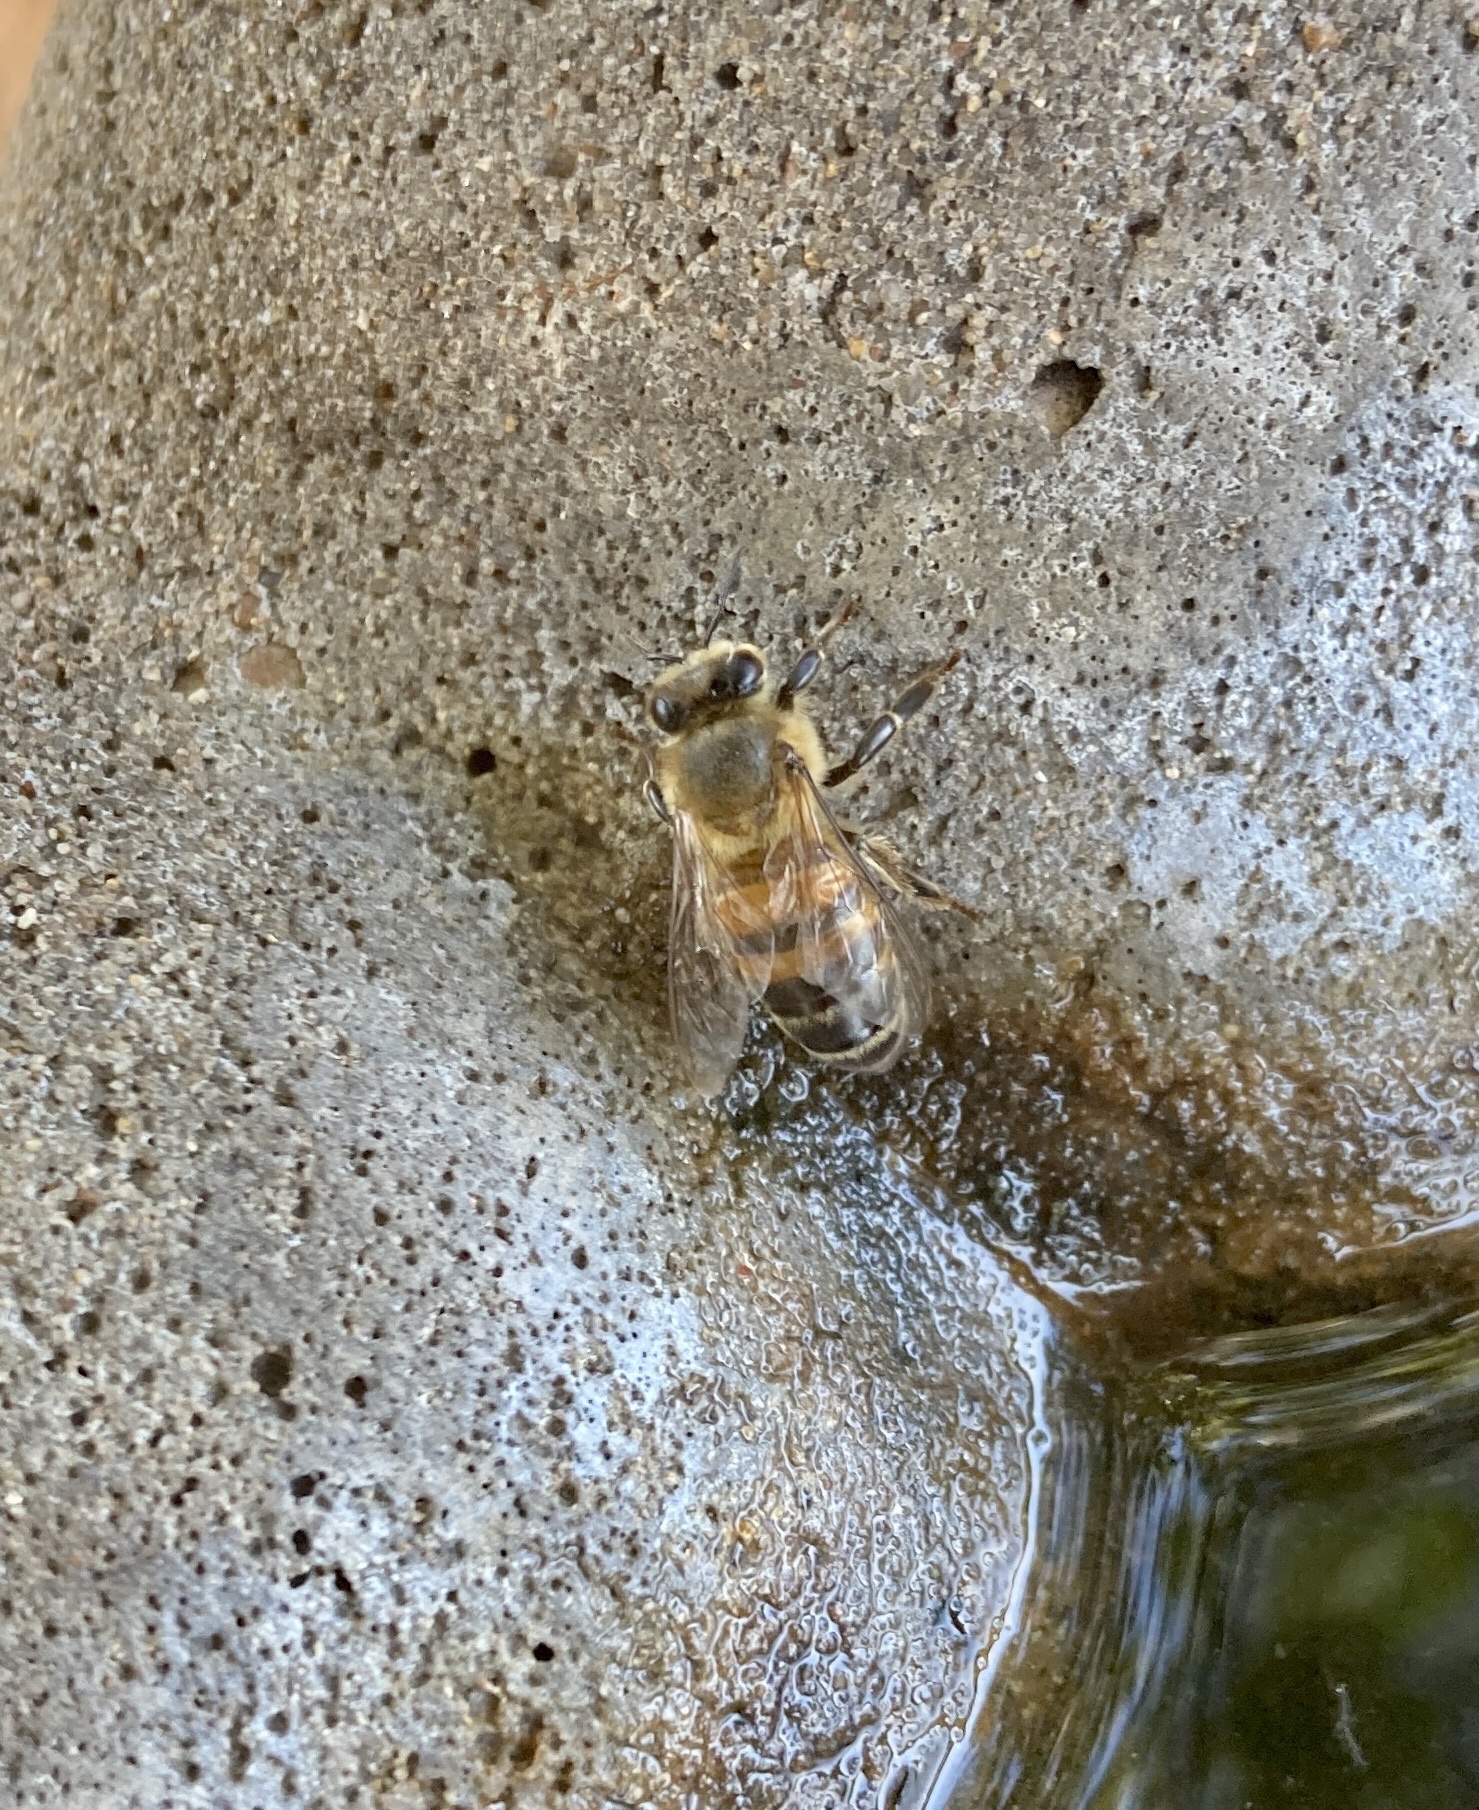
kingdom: Animalia
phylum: Arthropoda
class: Insecta
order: Hymenoptera
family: Apidae
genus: Apis
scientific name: Apis mellifera
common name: Honey bee
